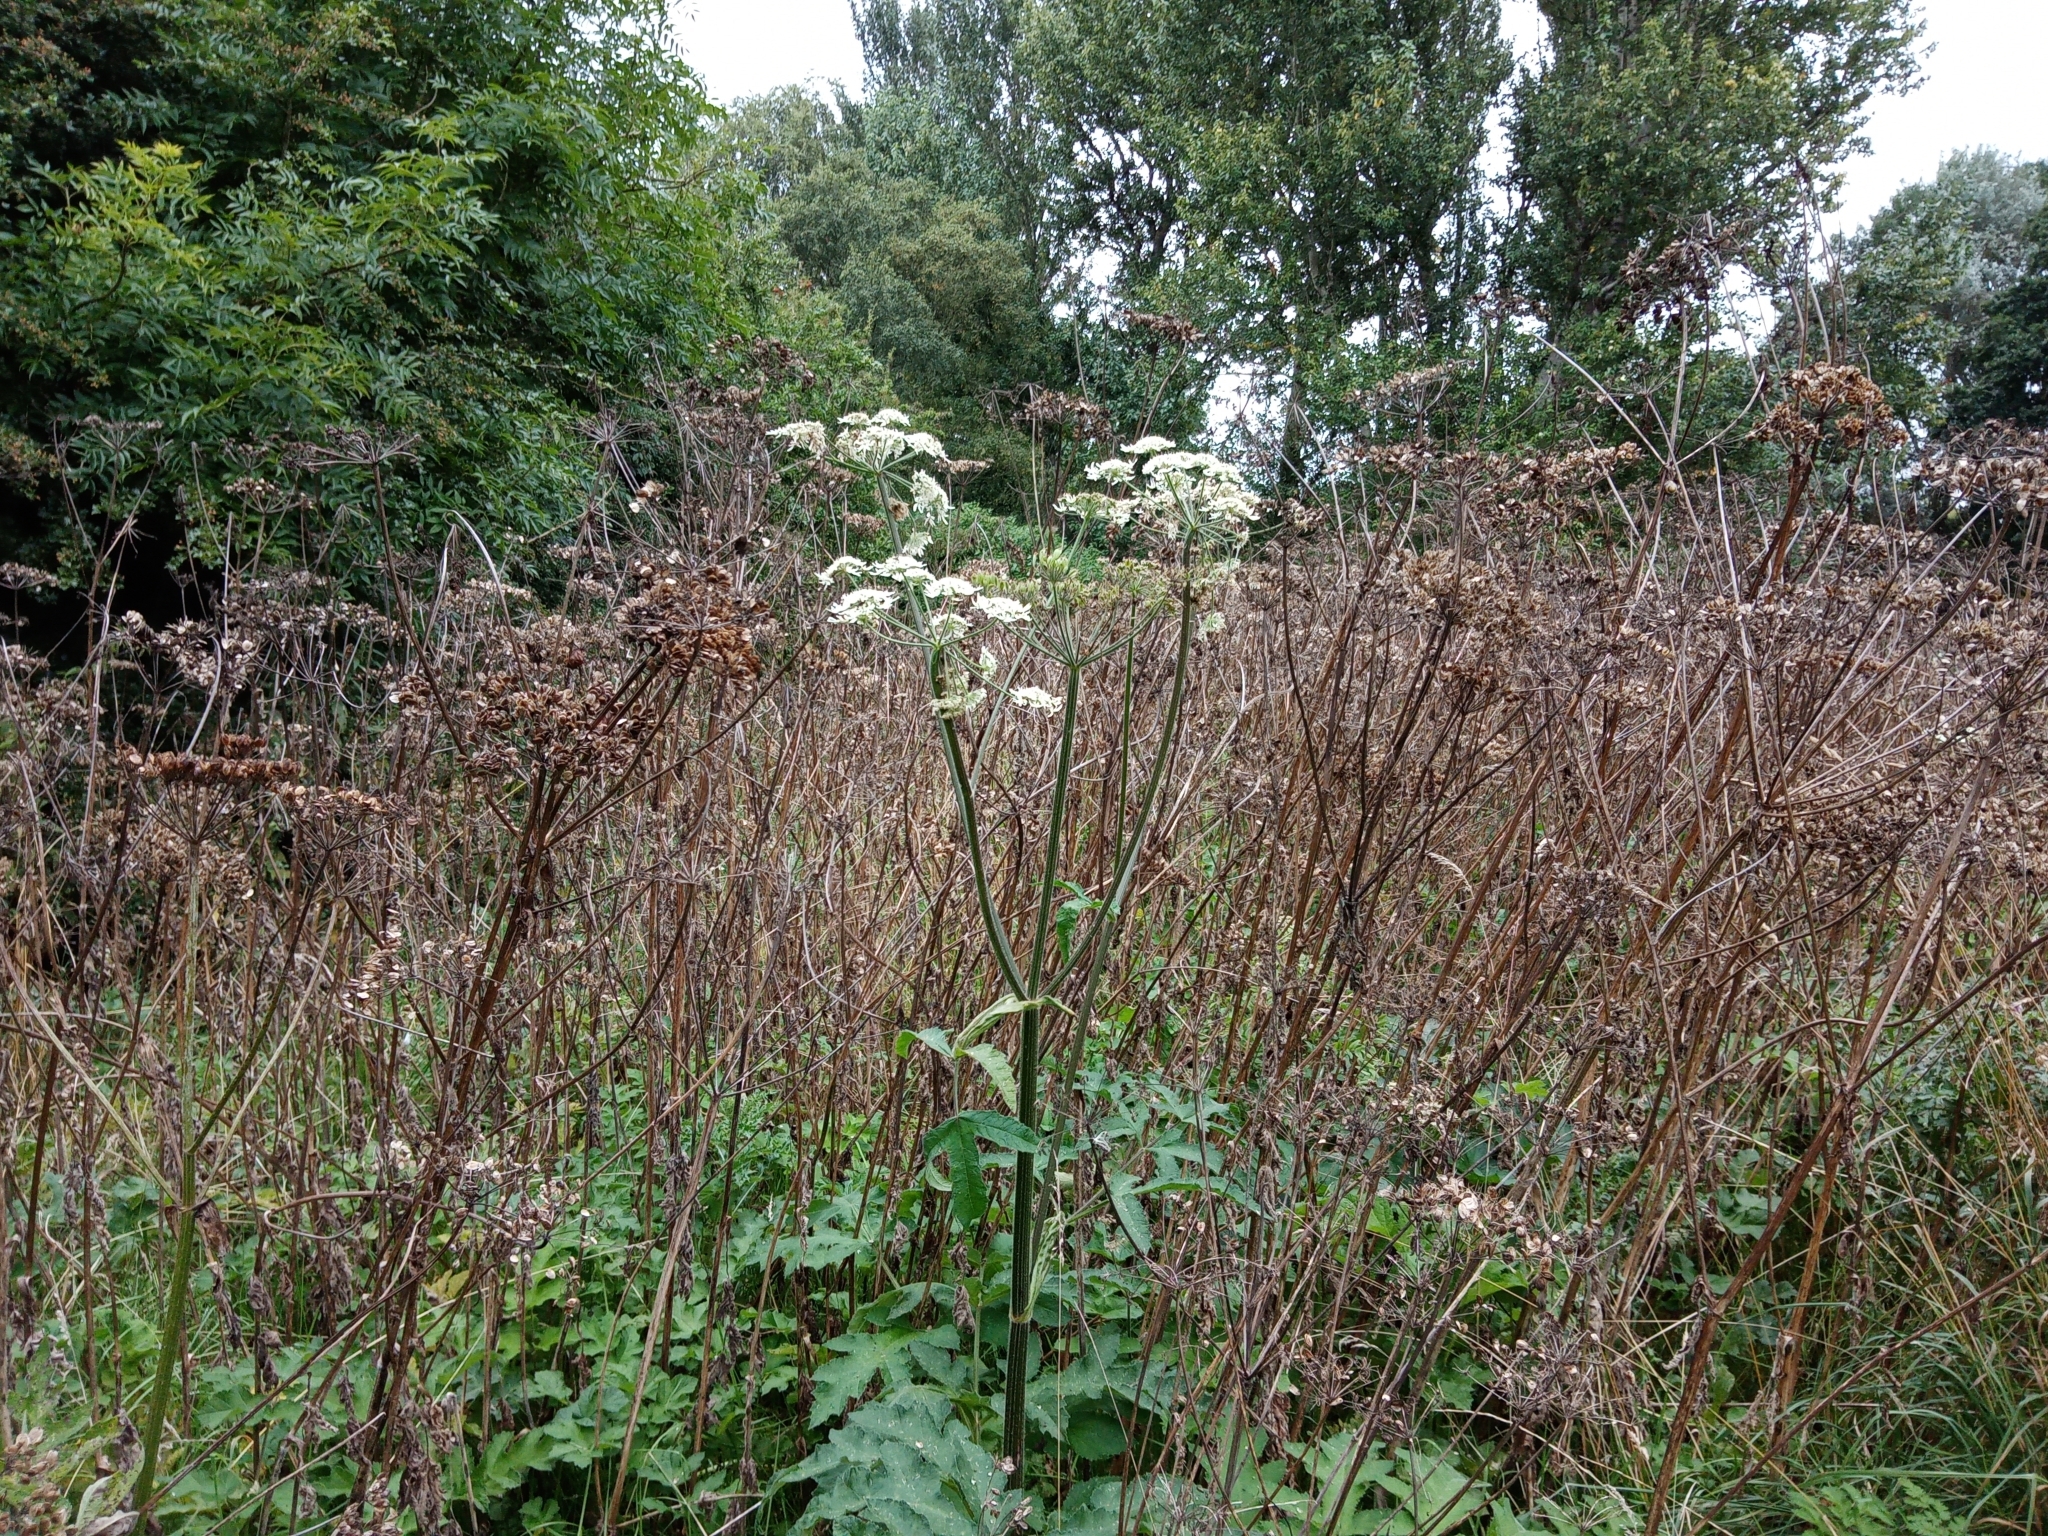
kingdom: Plantae
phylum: Tracheophyta
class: Magnoliopsida
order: Apiales
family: Apiaceae
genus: Heracleum
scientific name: Heracleum sphondylium
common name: Hogweed
